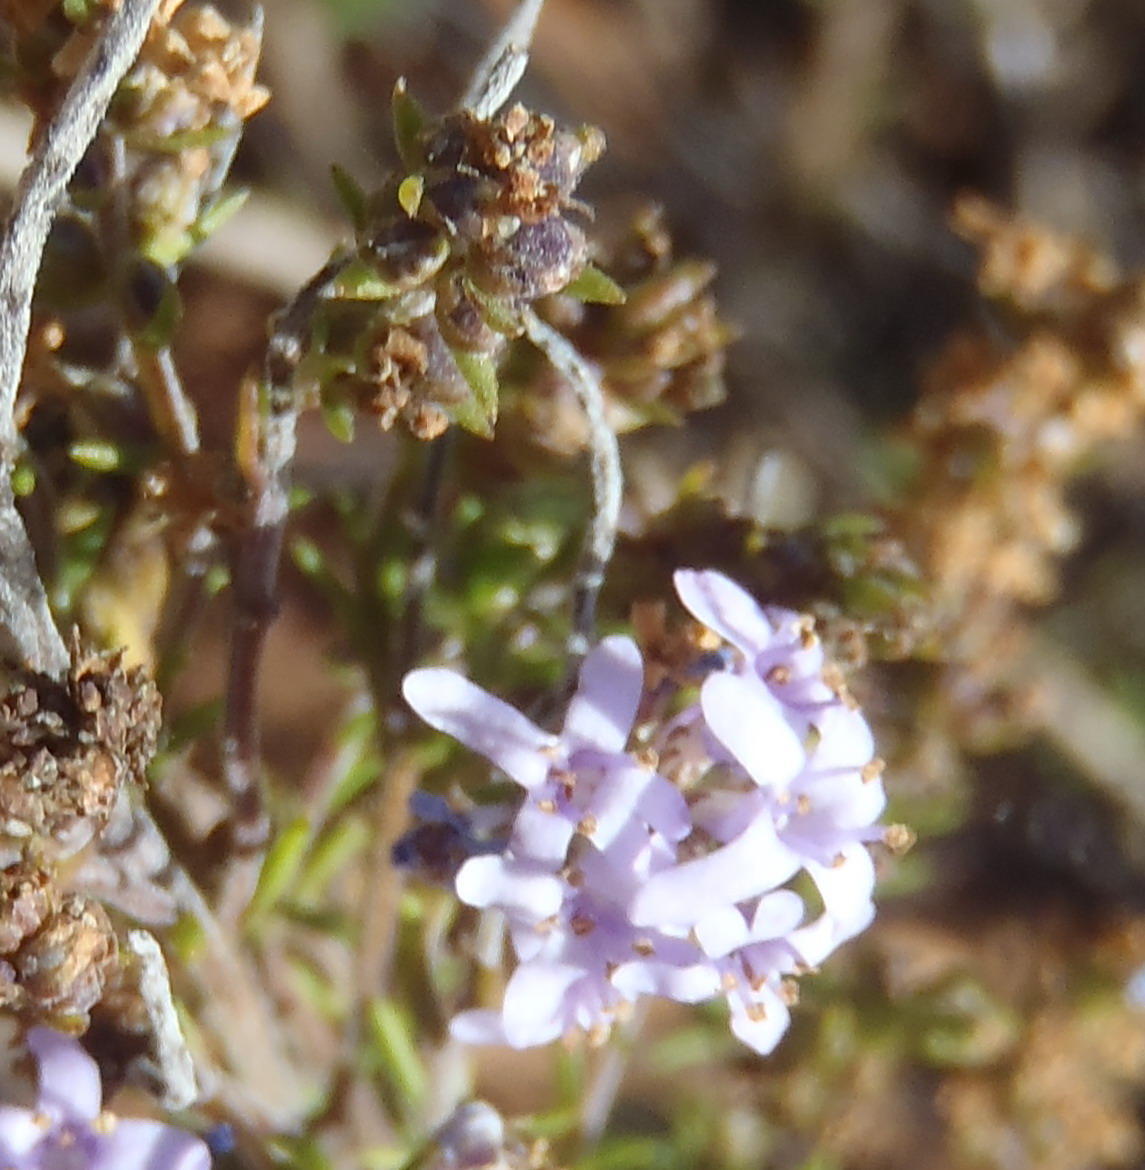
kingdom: Plantae
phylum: Tracheophyta
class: Magnoliopsida
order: Lamiales
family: Scrophulariaceae
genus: Selago
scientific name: Selago canescens
